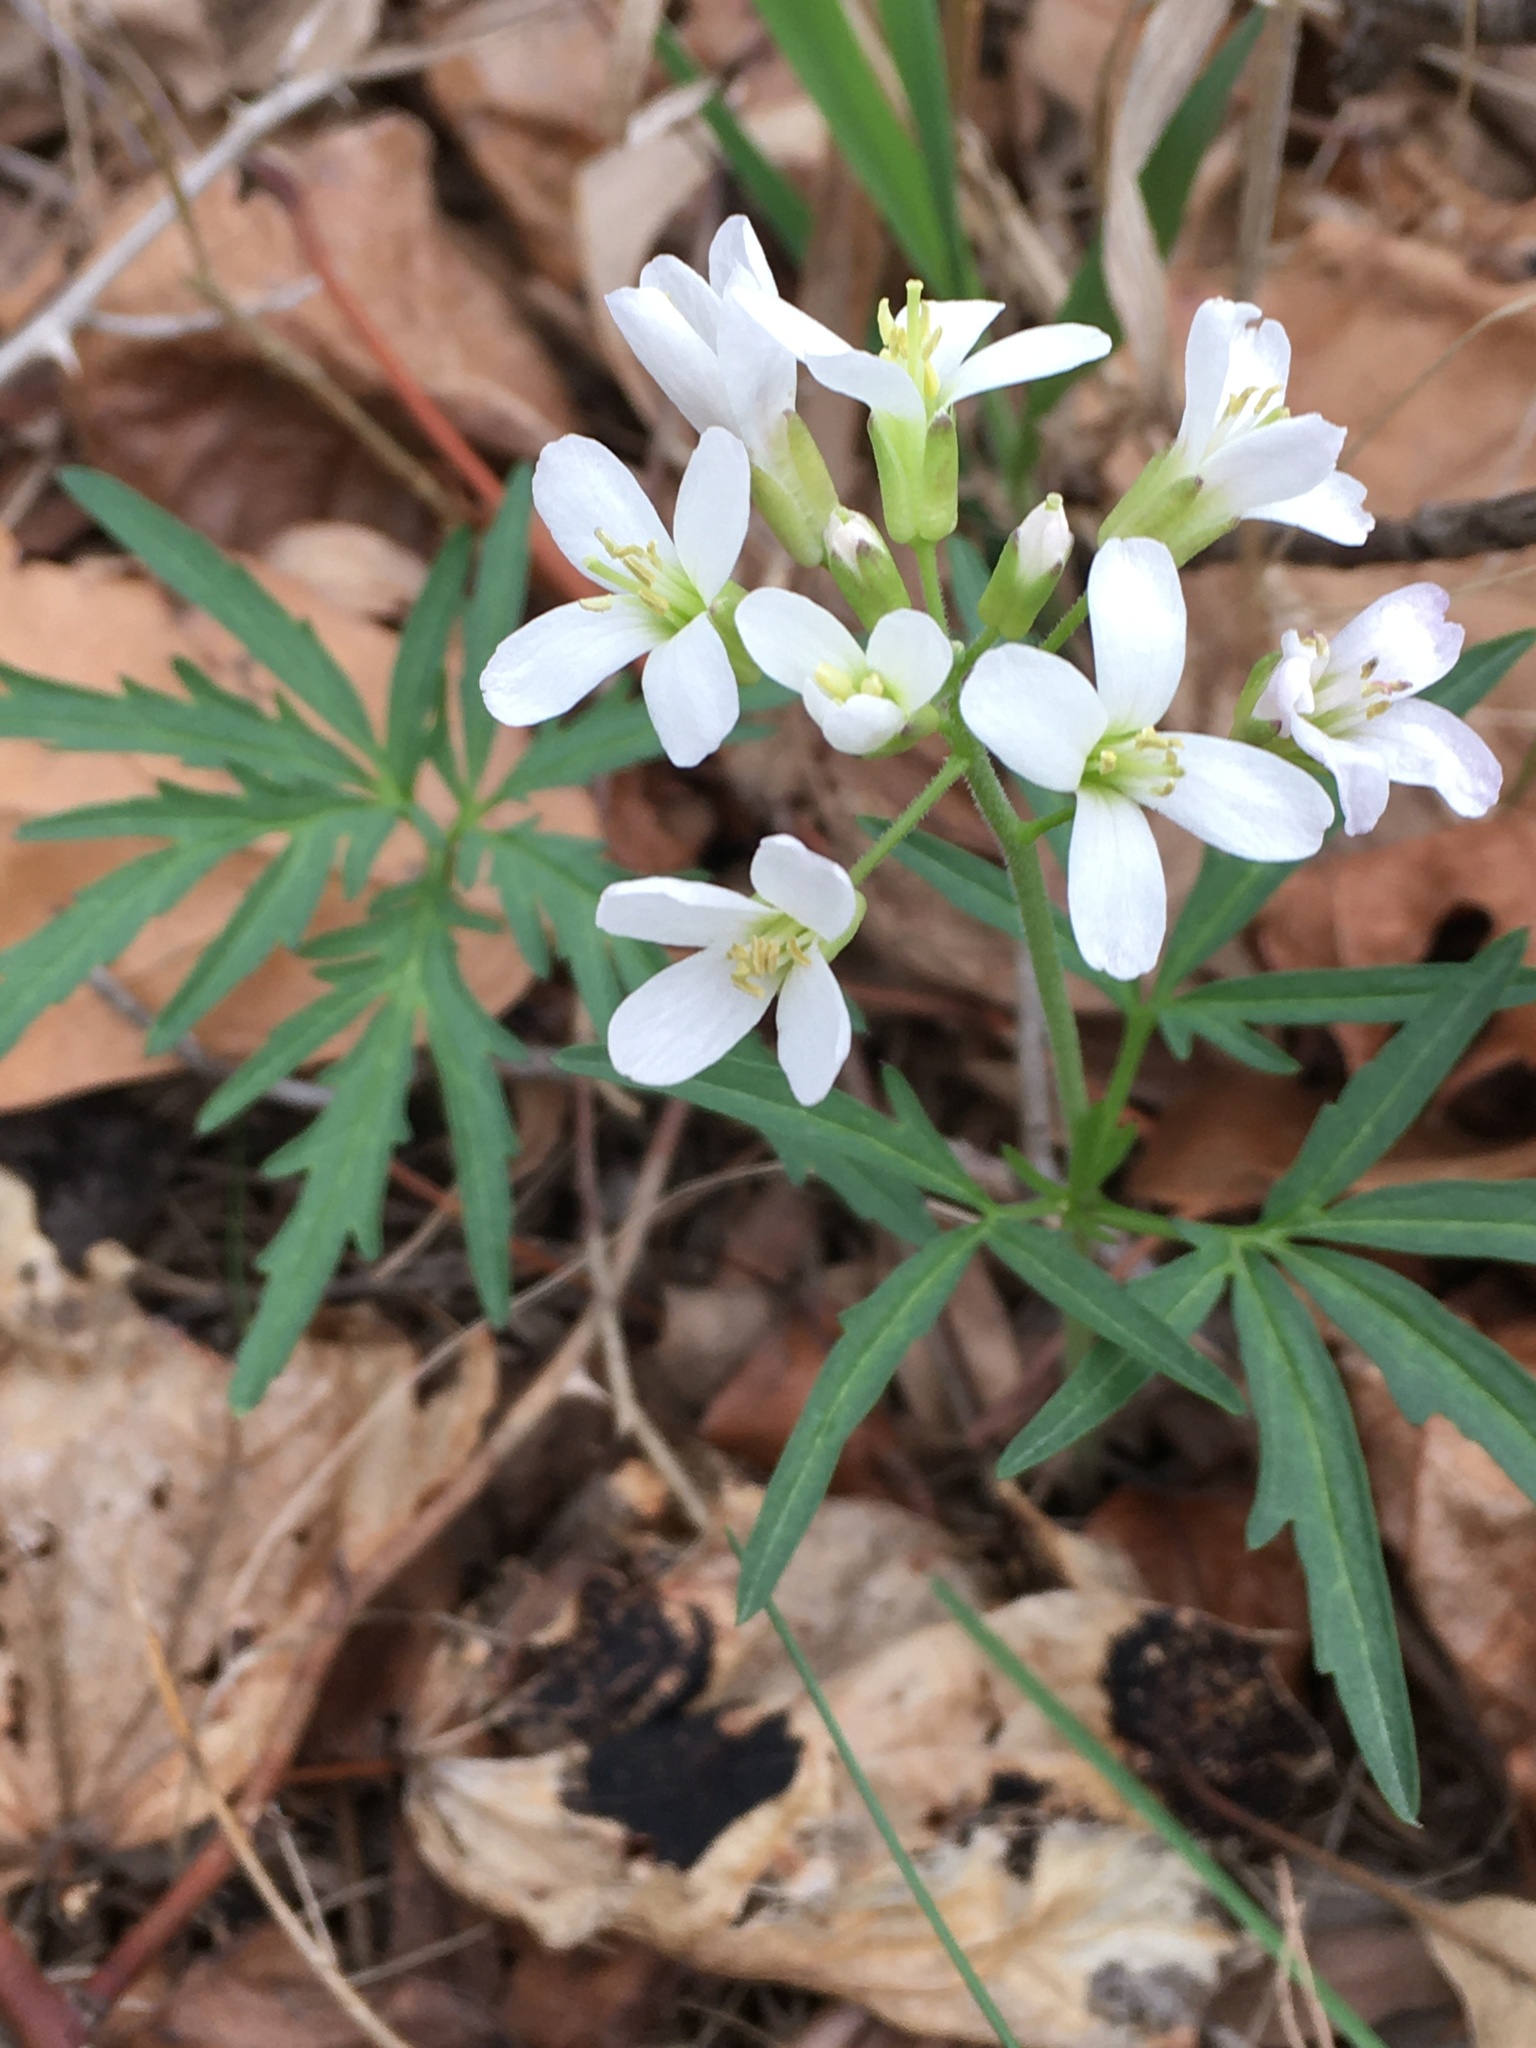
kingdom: Plantae
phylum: Tracheophyta
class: Magnoliopsida
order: Brassicales
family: Brassicaceae
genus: Cardamine
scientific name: Cardamine concatenata
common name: Cut-leaf toothcup
